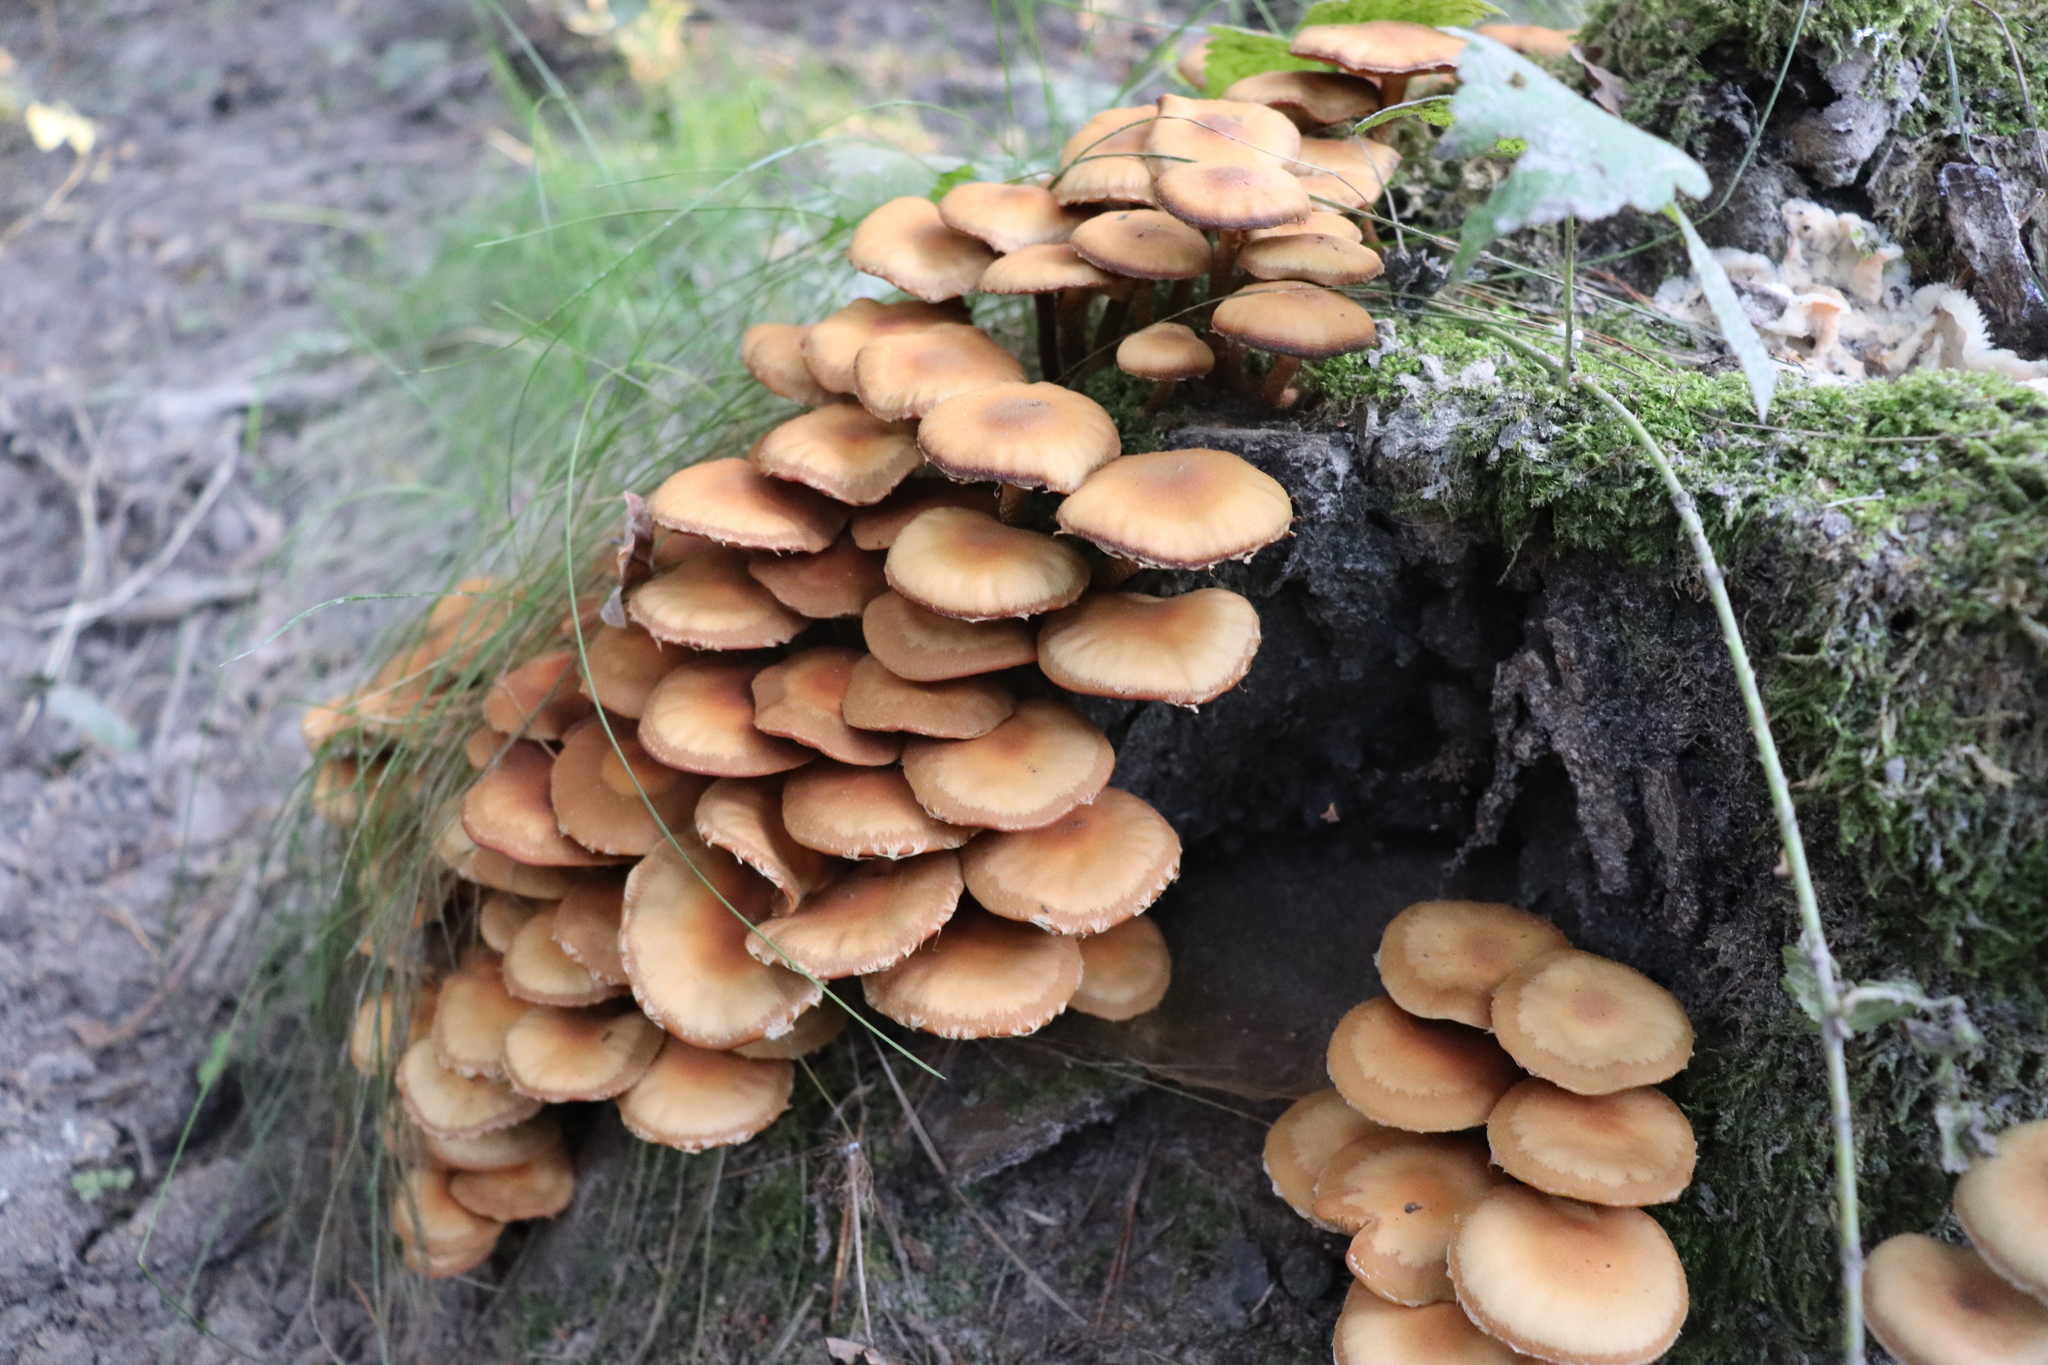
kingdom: Fungi
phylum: Basidiomycota
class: Agaricomycetes
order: Agaricales
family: Strophariaceae
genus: Kuehneromyces
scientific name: Kuehneromyces mutabilis
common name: Sheathed woodtuft
